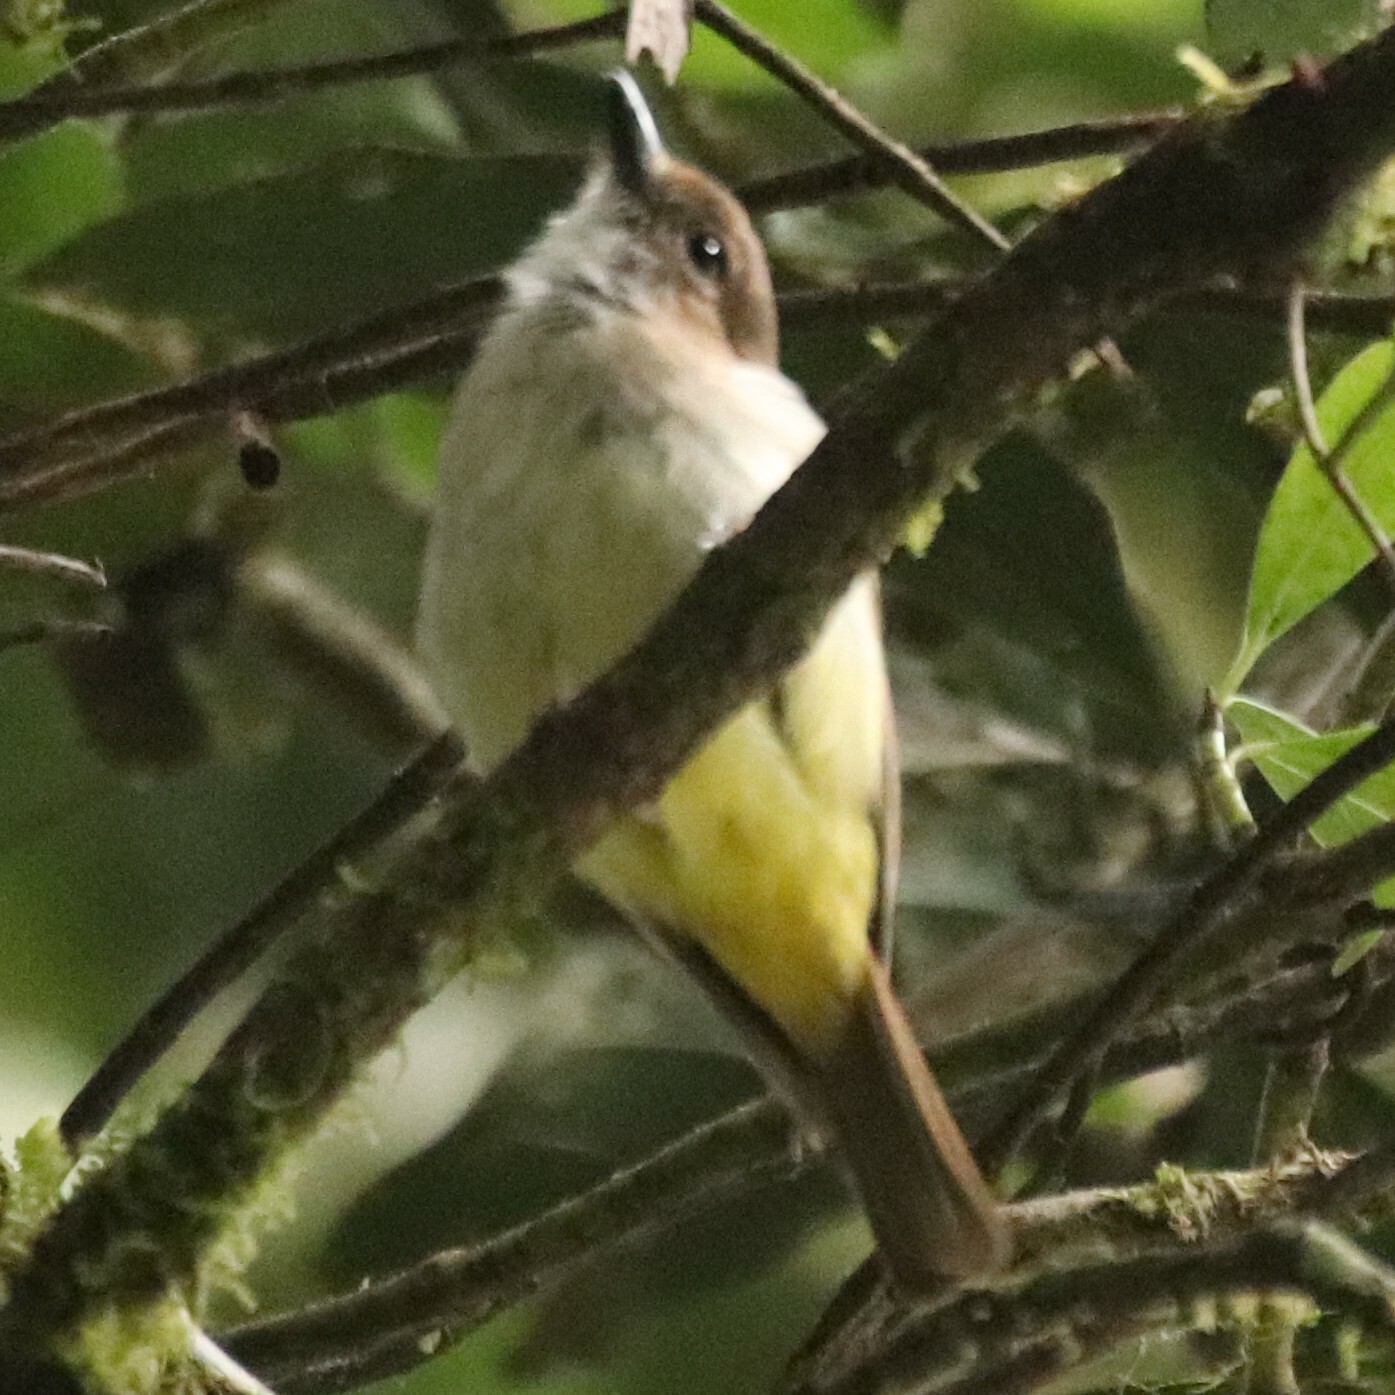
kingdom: Animalia
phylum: Chordata
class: Aves
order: Passeriformes
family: Pachycephalidae
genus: Pachycephala
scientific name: Pachycephala sulfuriventer
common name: Sulphur-vented whistler
